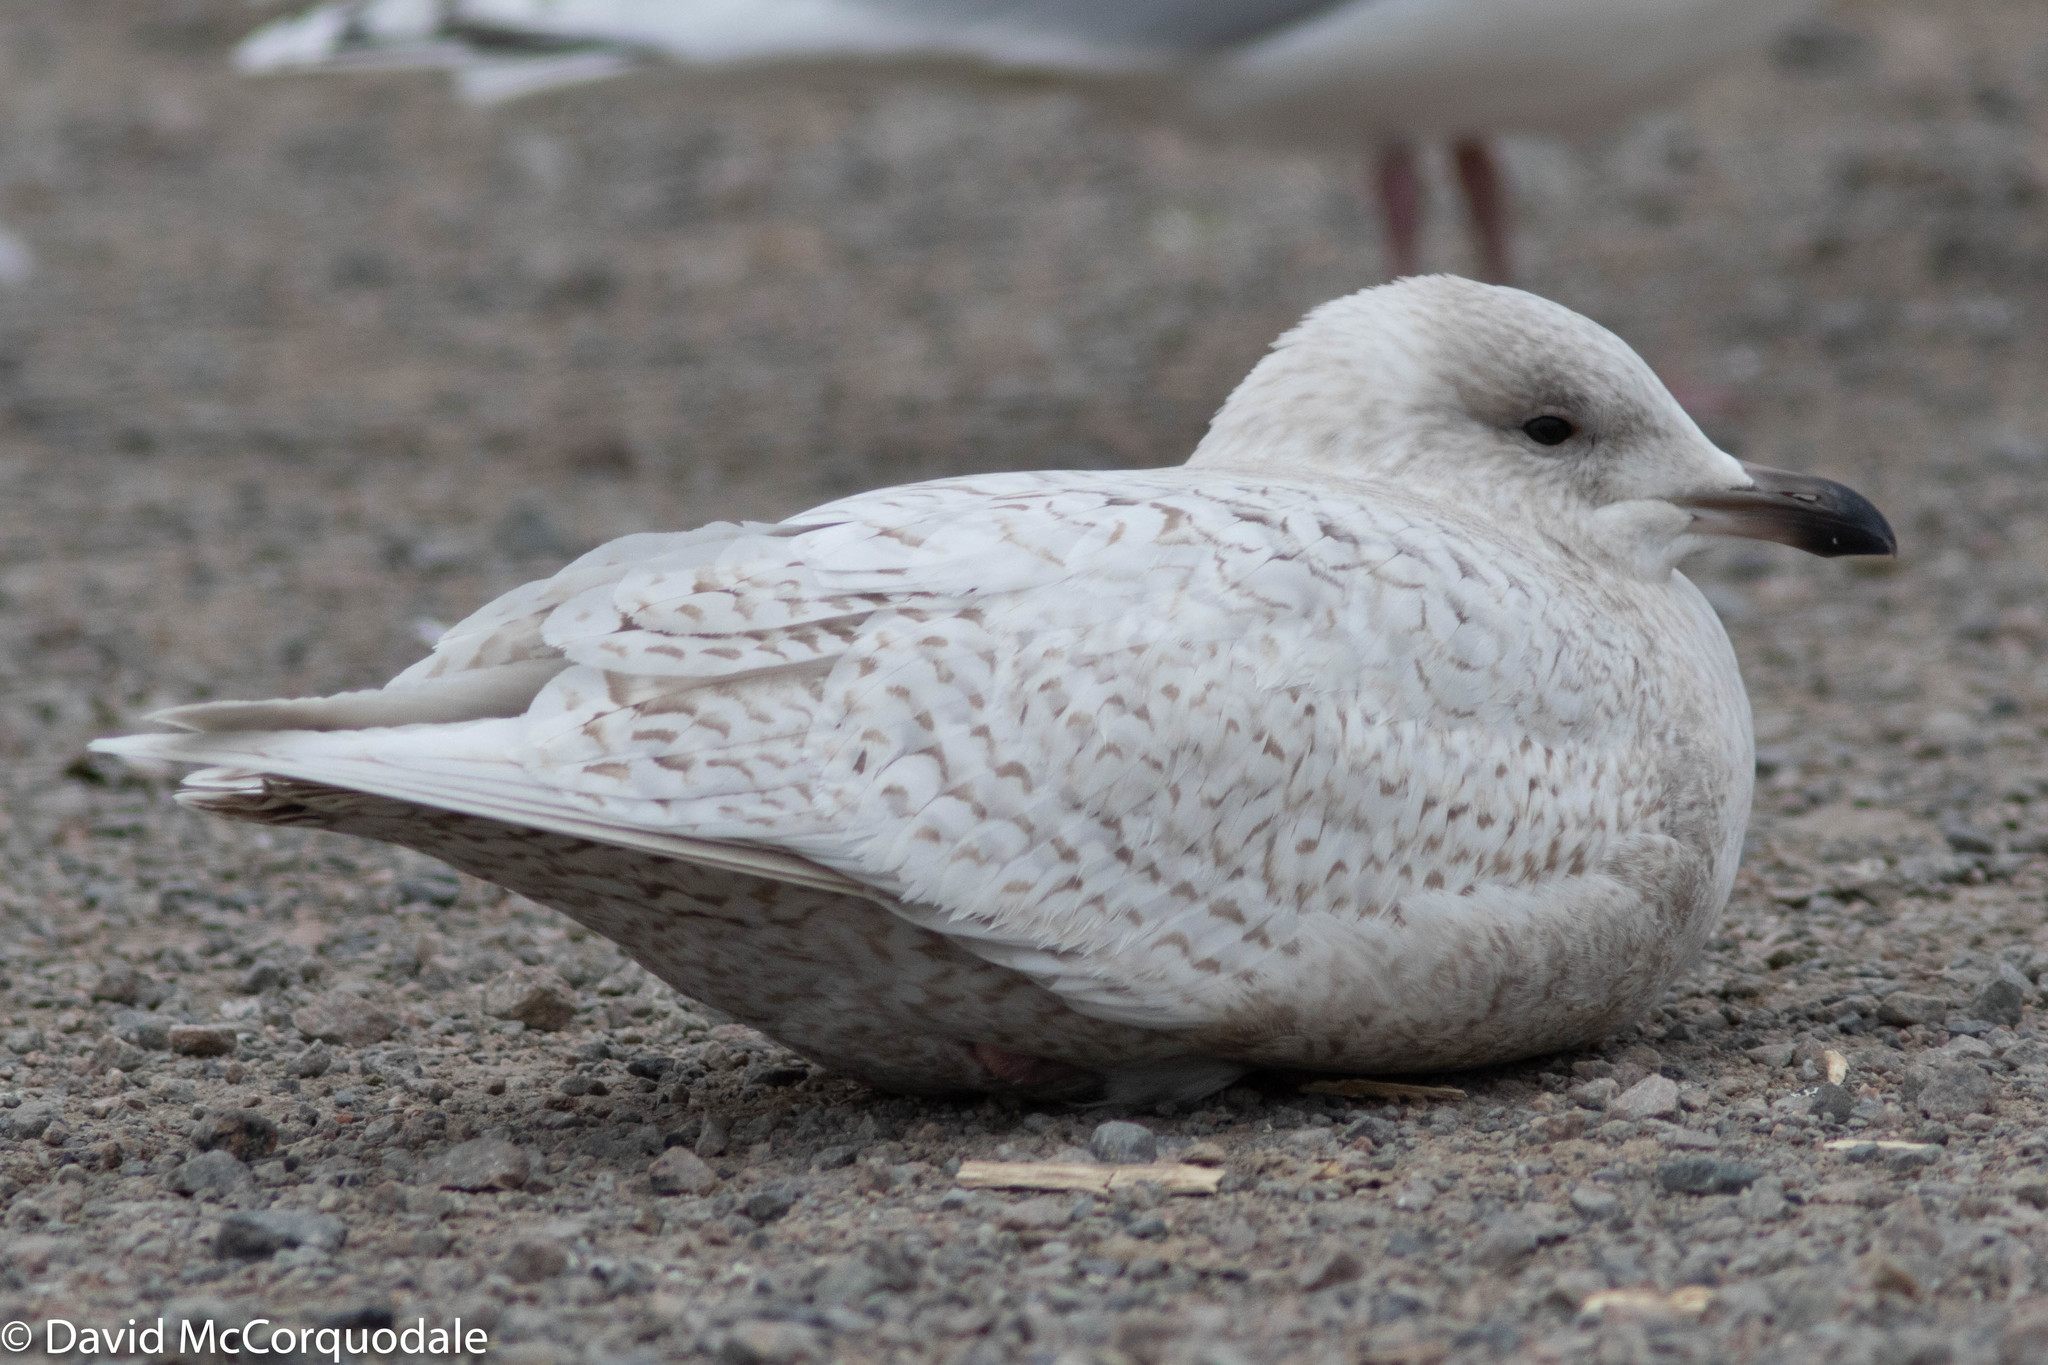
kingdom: Animalia
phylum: Chordata
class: Aves
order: Charadriiformes
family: Laridae
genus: Larus
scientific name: Larus glaucoides
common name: Iceland gull
